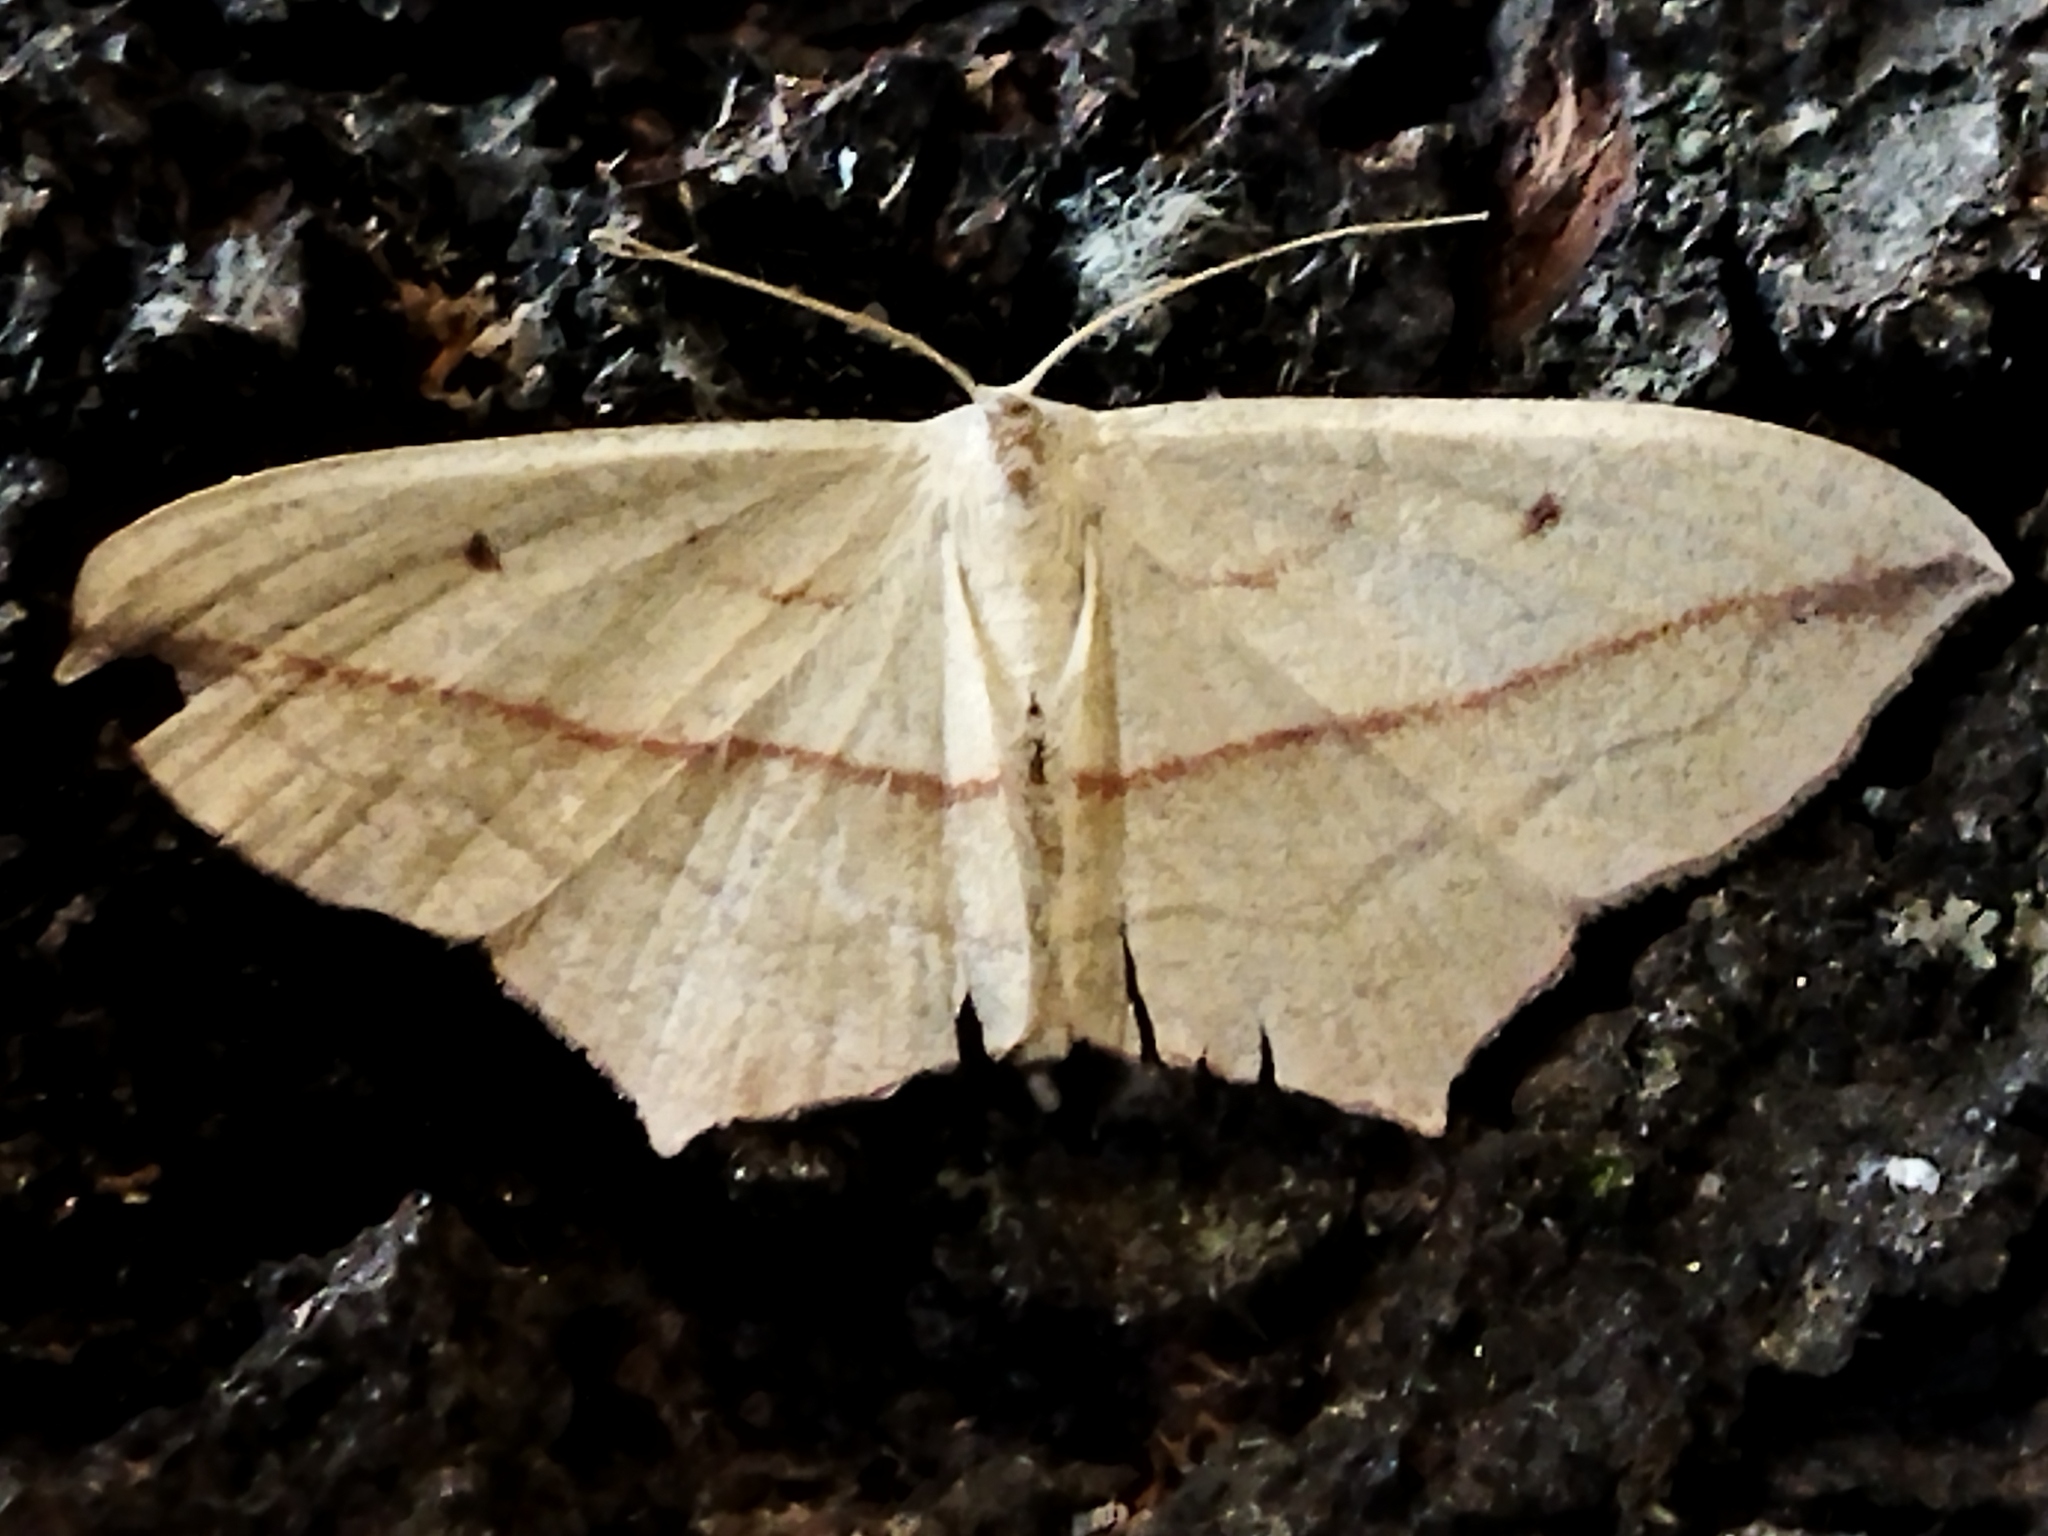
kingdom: Animalia
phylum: Arthropoda
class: Insecta
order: Lepidoptera
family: Geometridae
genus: Timandra
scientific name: Timandra comae
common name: Blood-vein
